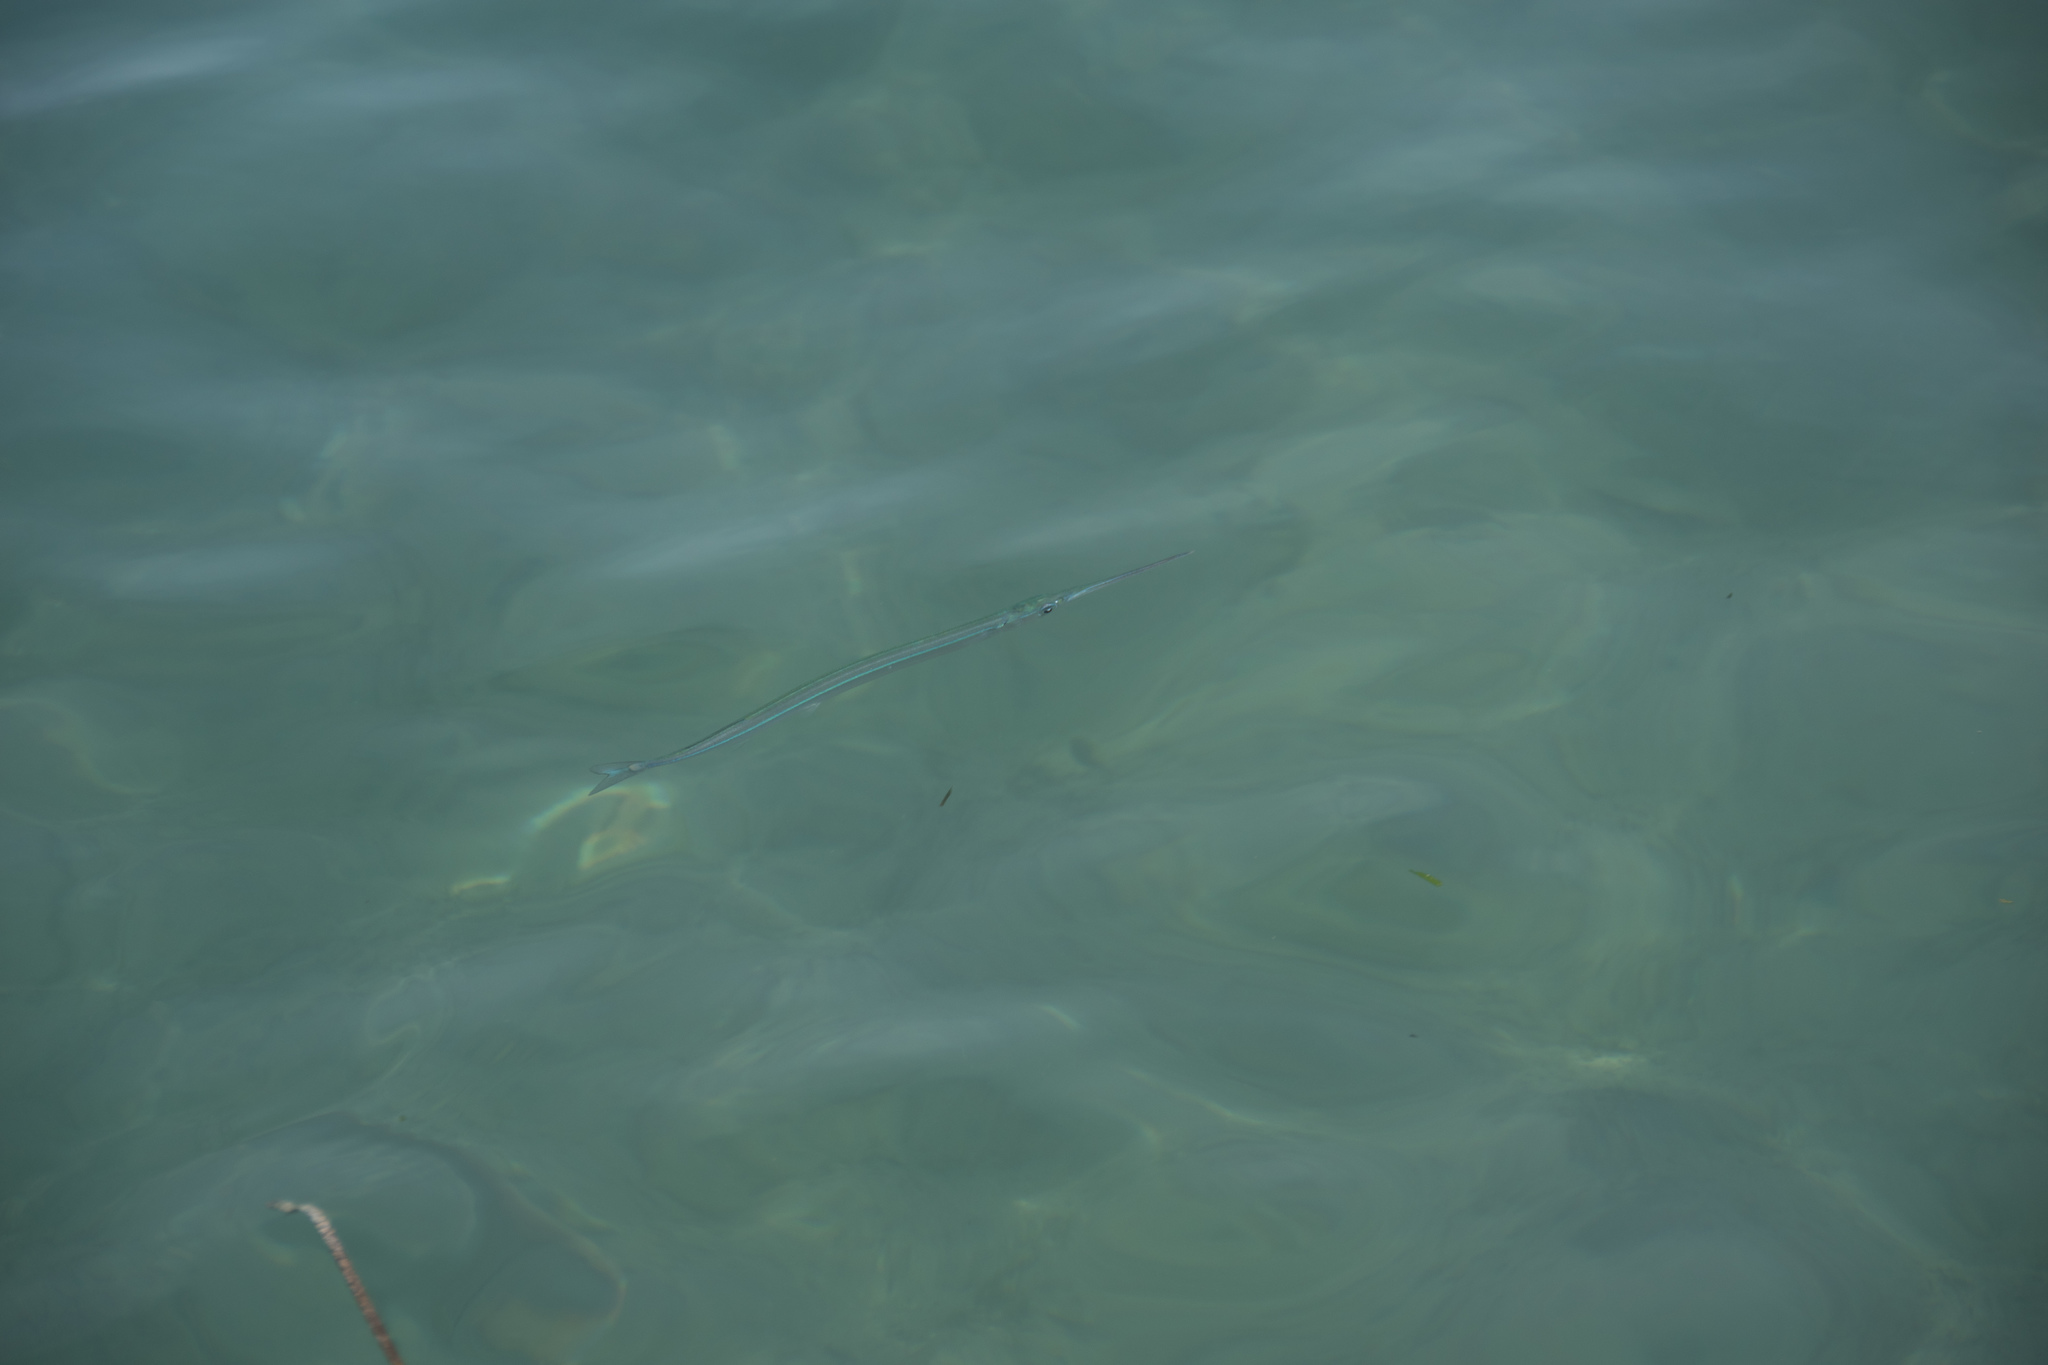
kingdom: Animalia
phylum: Chordata
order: Beloniformes
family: Belonidae
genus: Belone
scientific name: Belone
